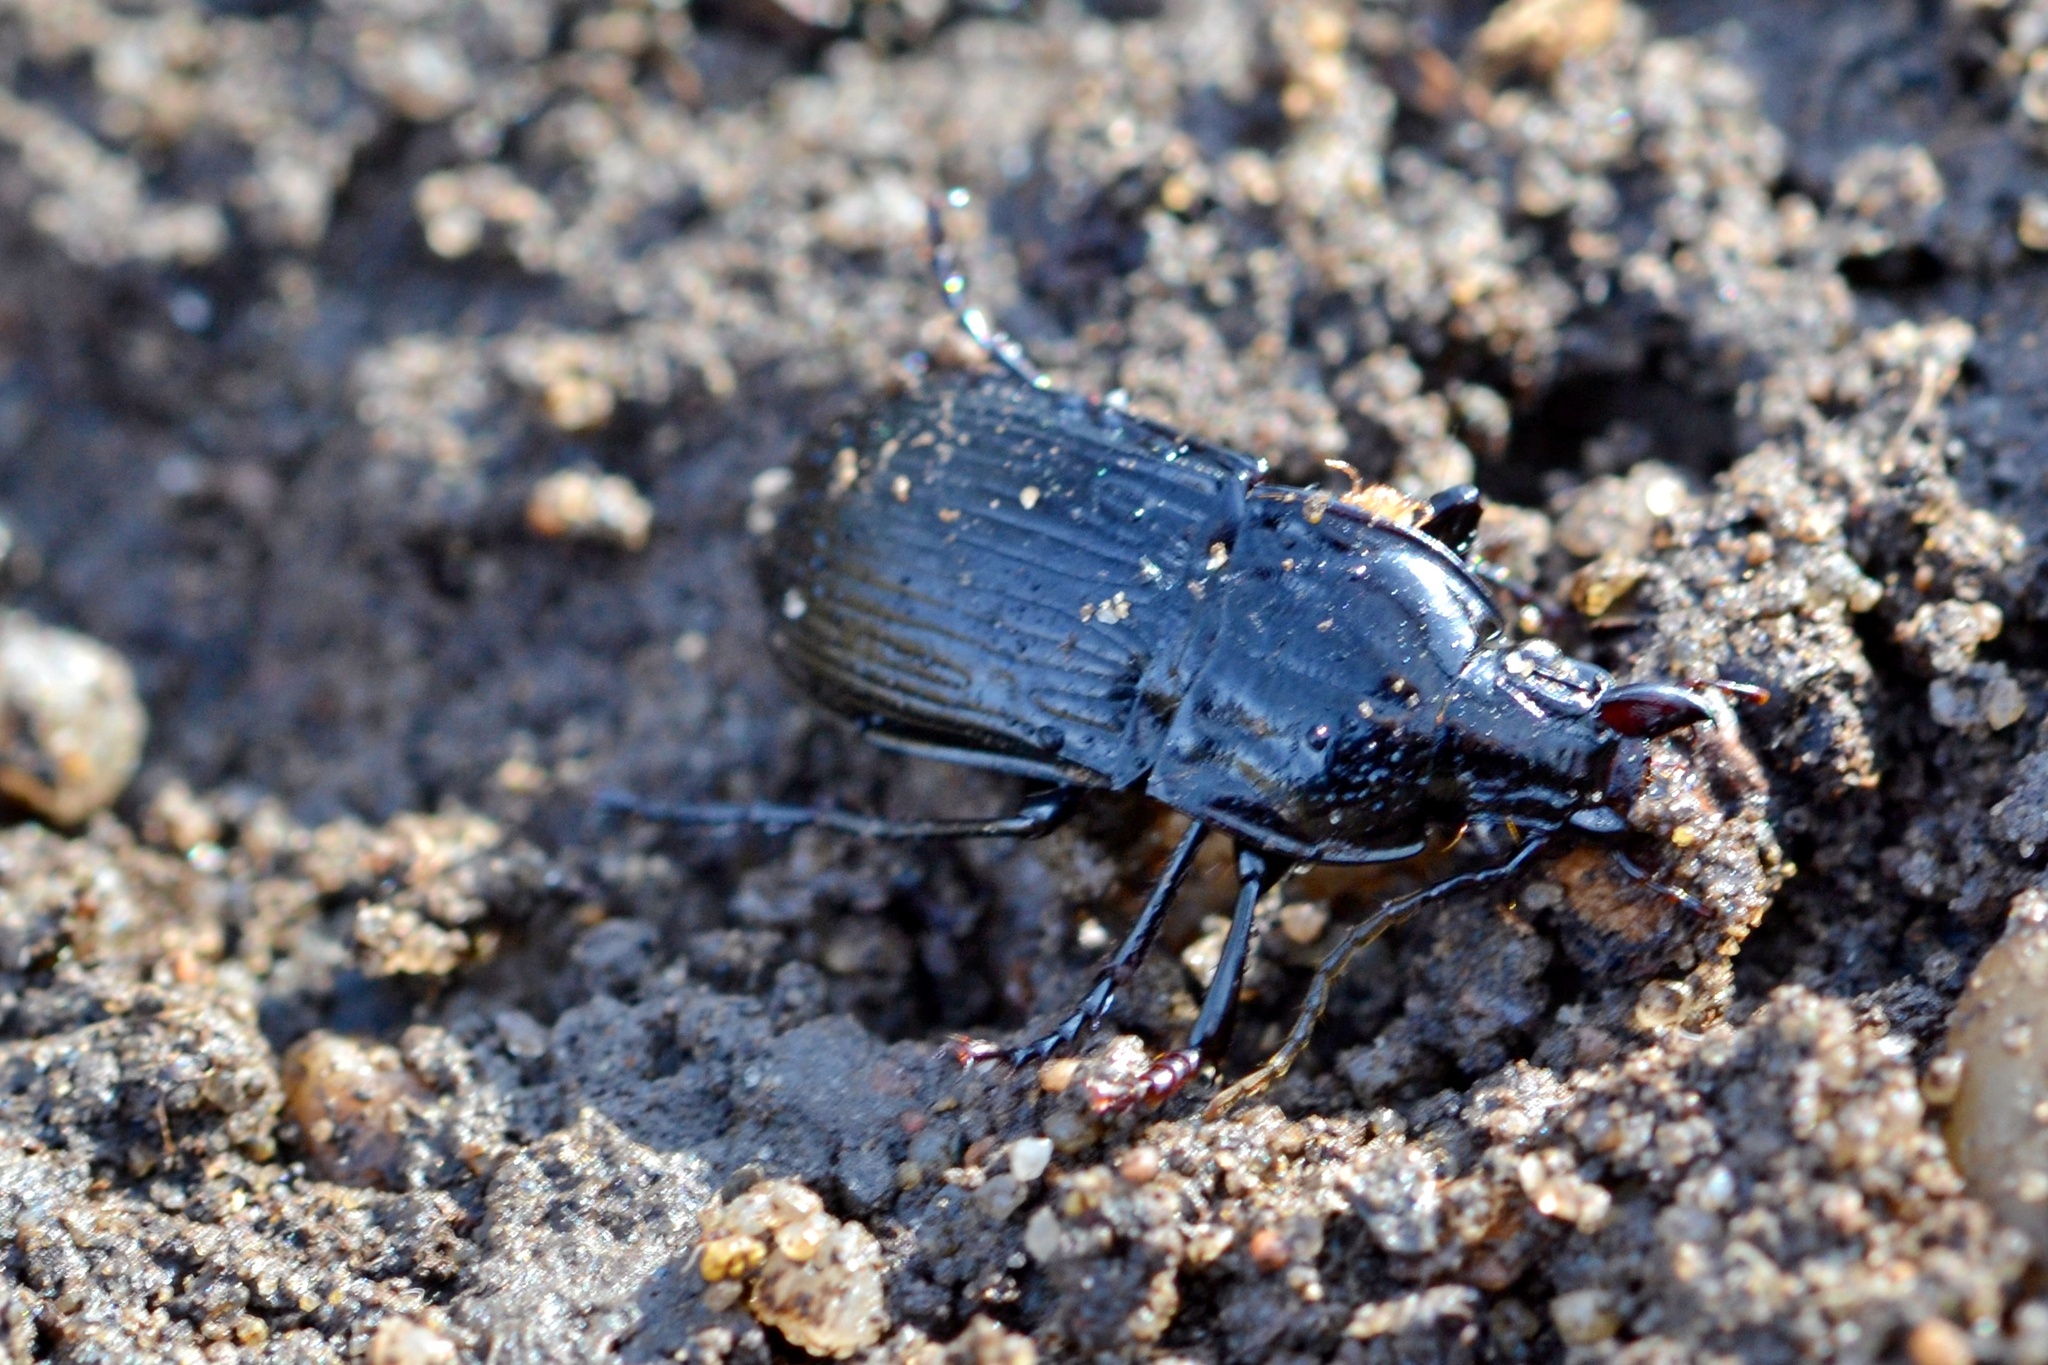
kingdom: Animalia
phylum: Arthropoda
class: Insecta
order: Coleoptera
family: Carabidae
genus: Abax
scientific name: Abax parallelepipedus
